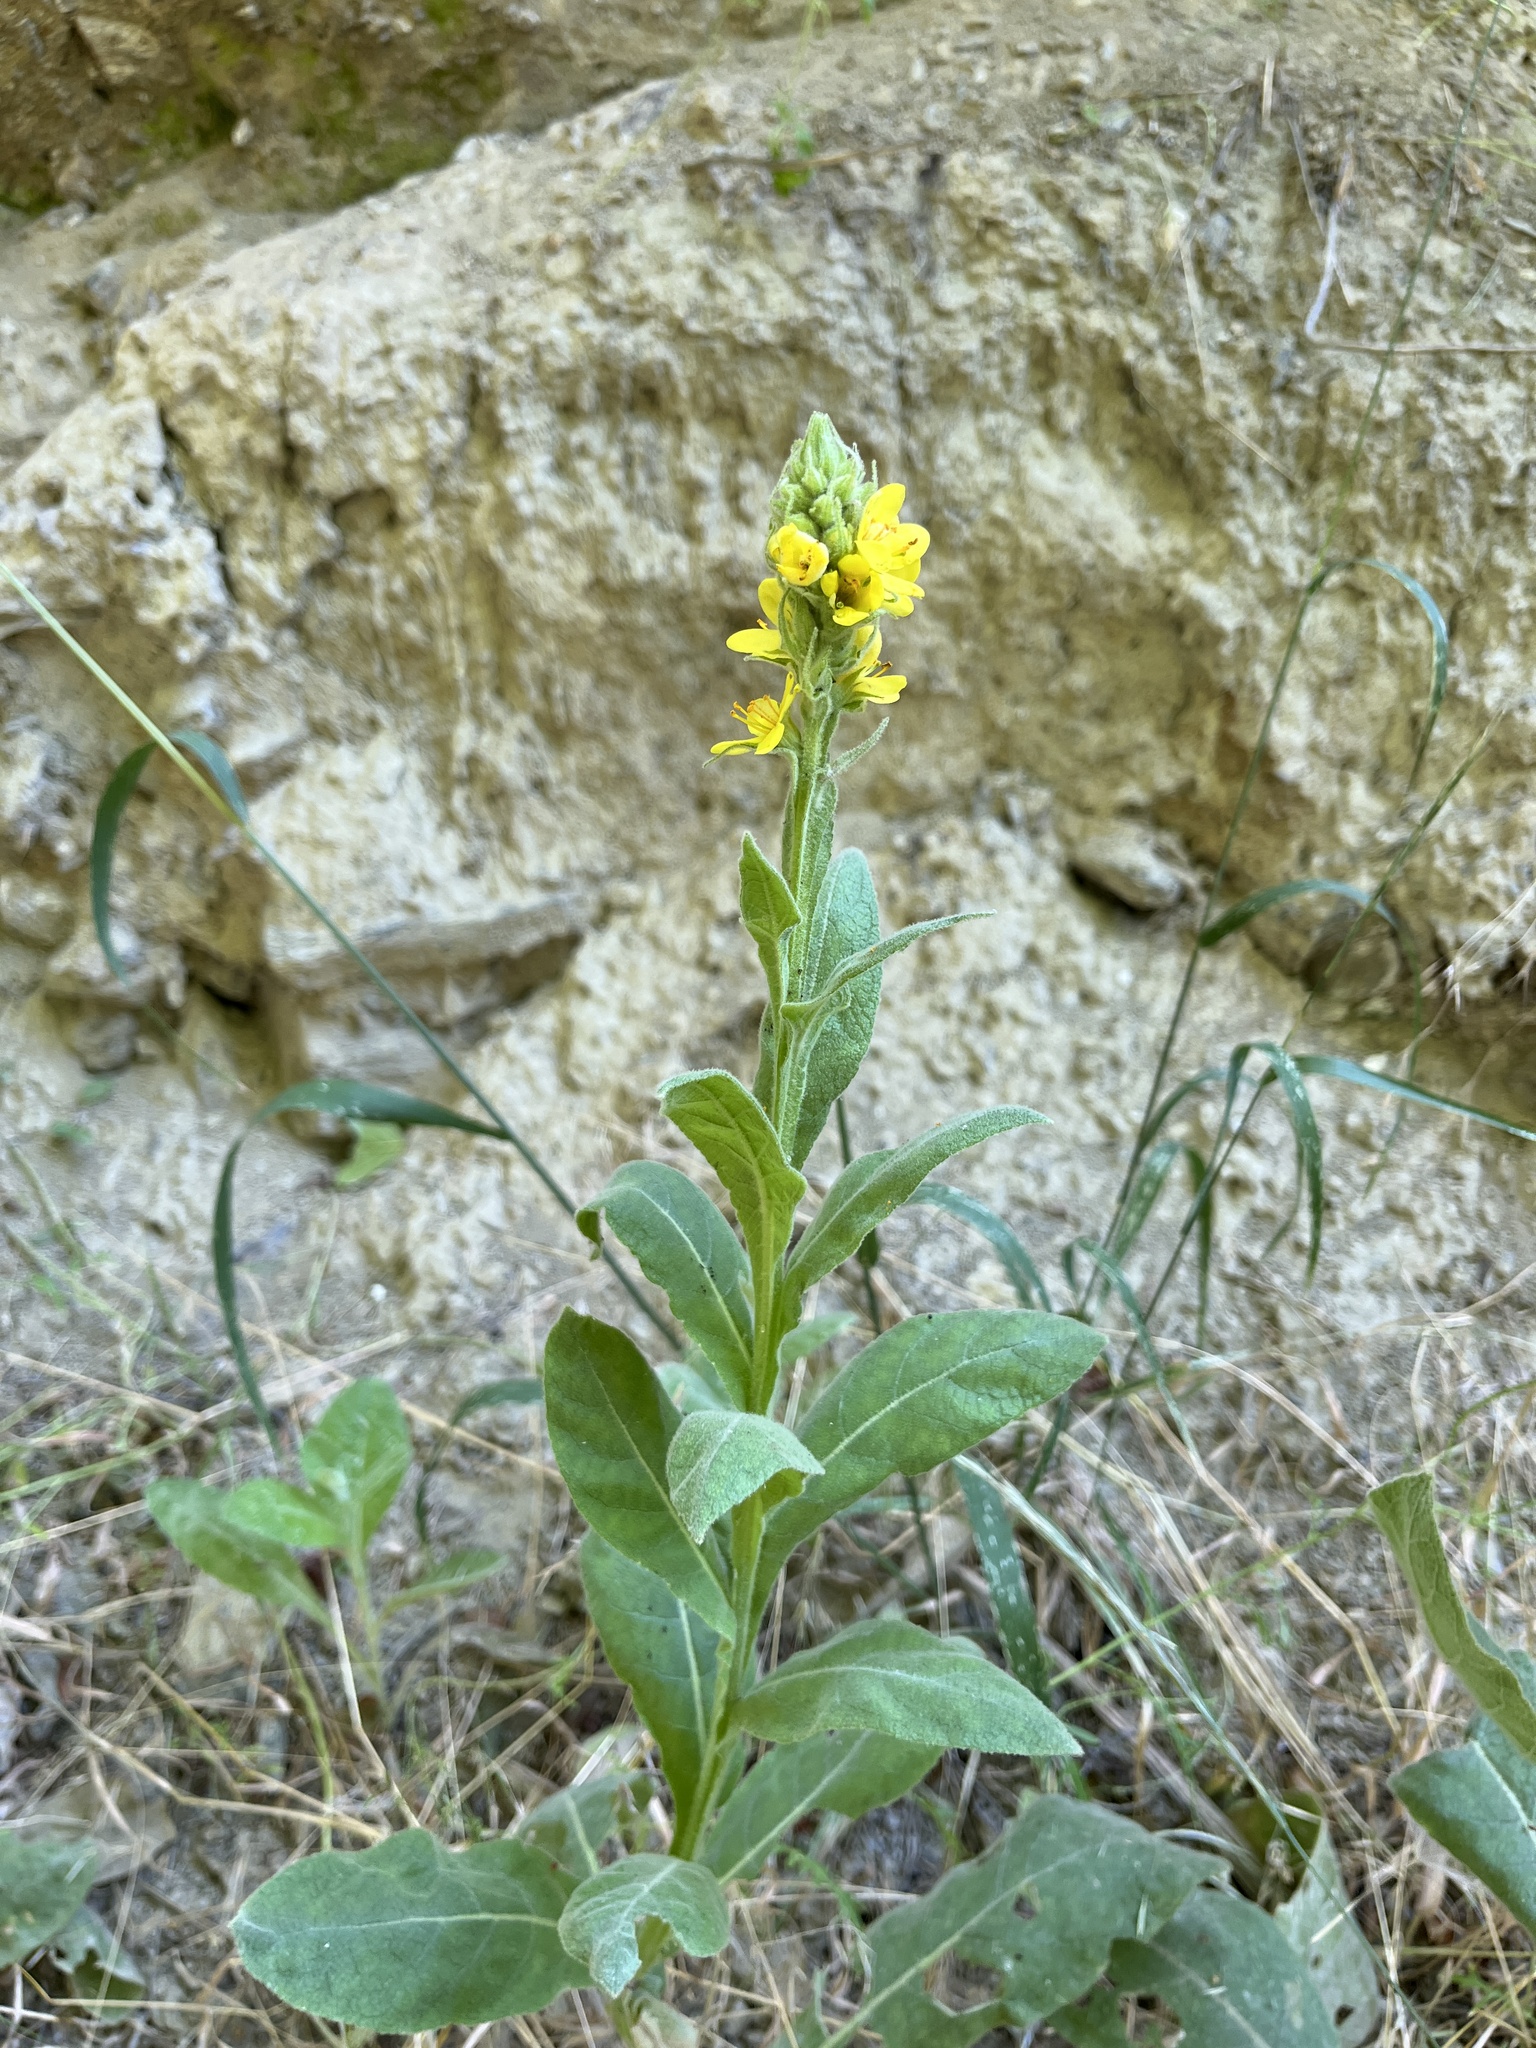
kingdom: Plantae
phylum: Tracheophyta
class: Magnoliopsida
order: Lamiales
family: Scrophulariaceae
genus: Verbascum
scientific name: Verbascum thapsus
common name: Common mullein
